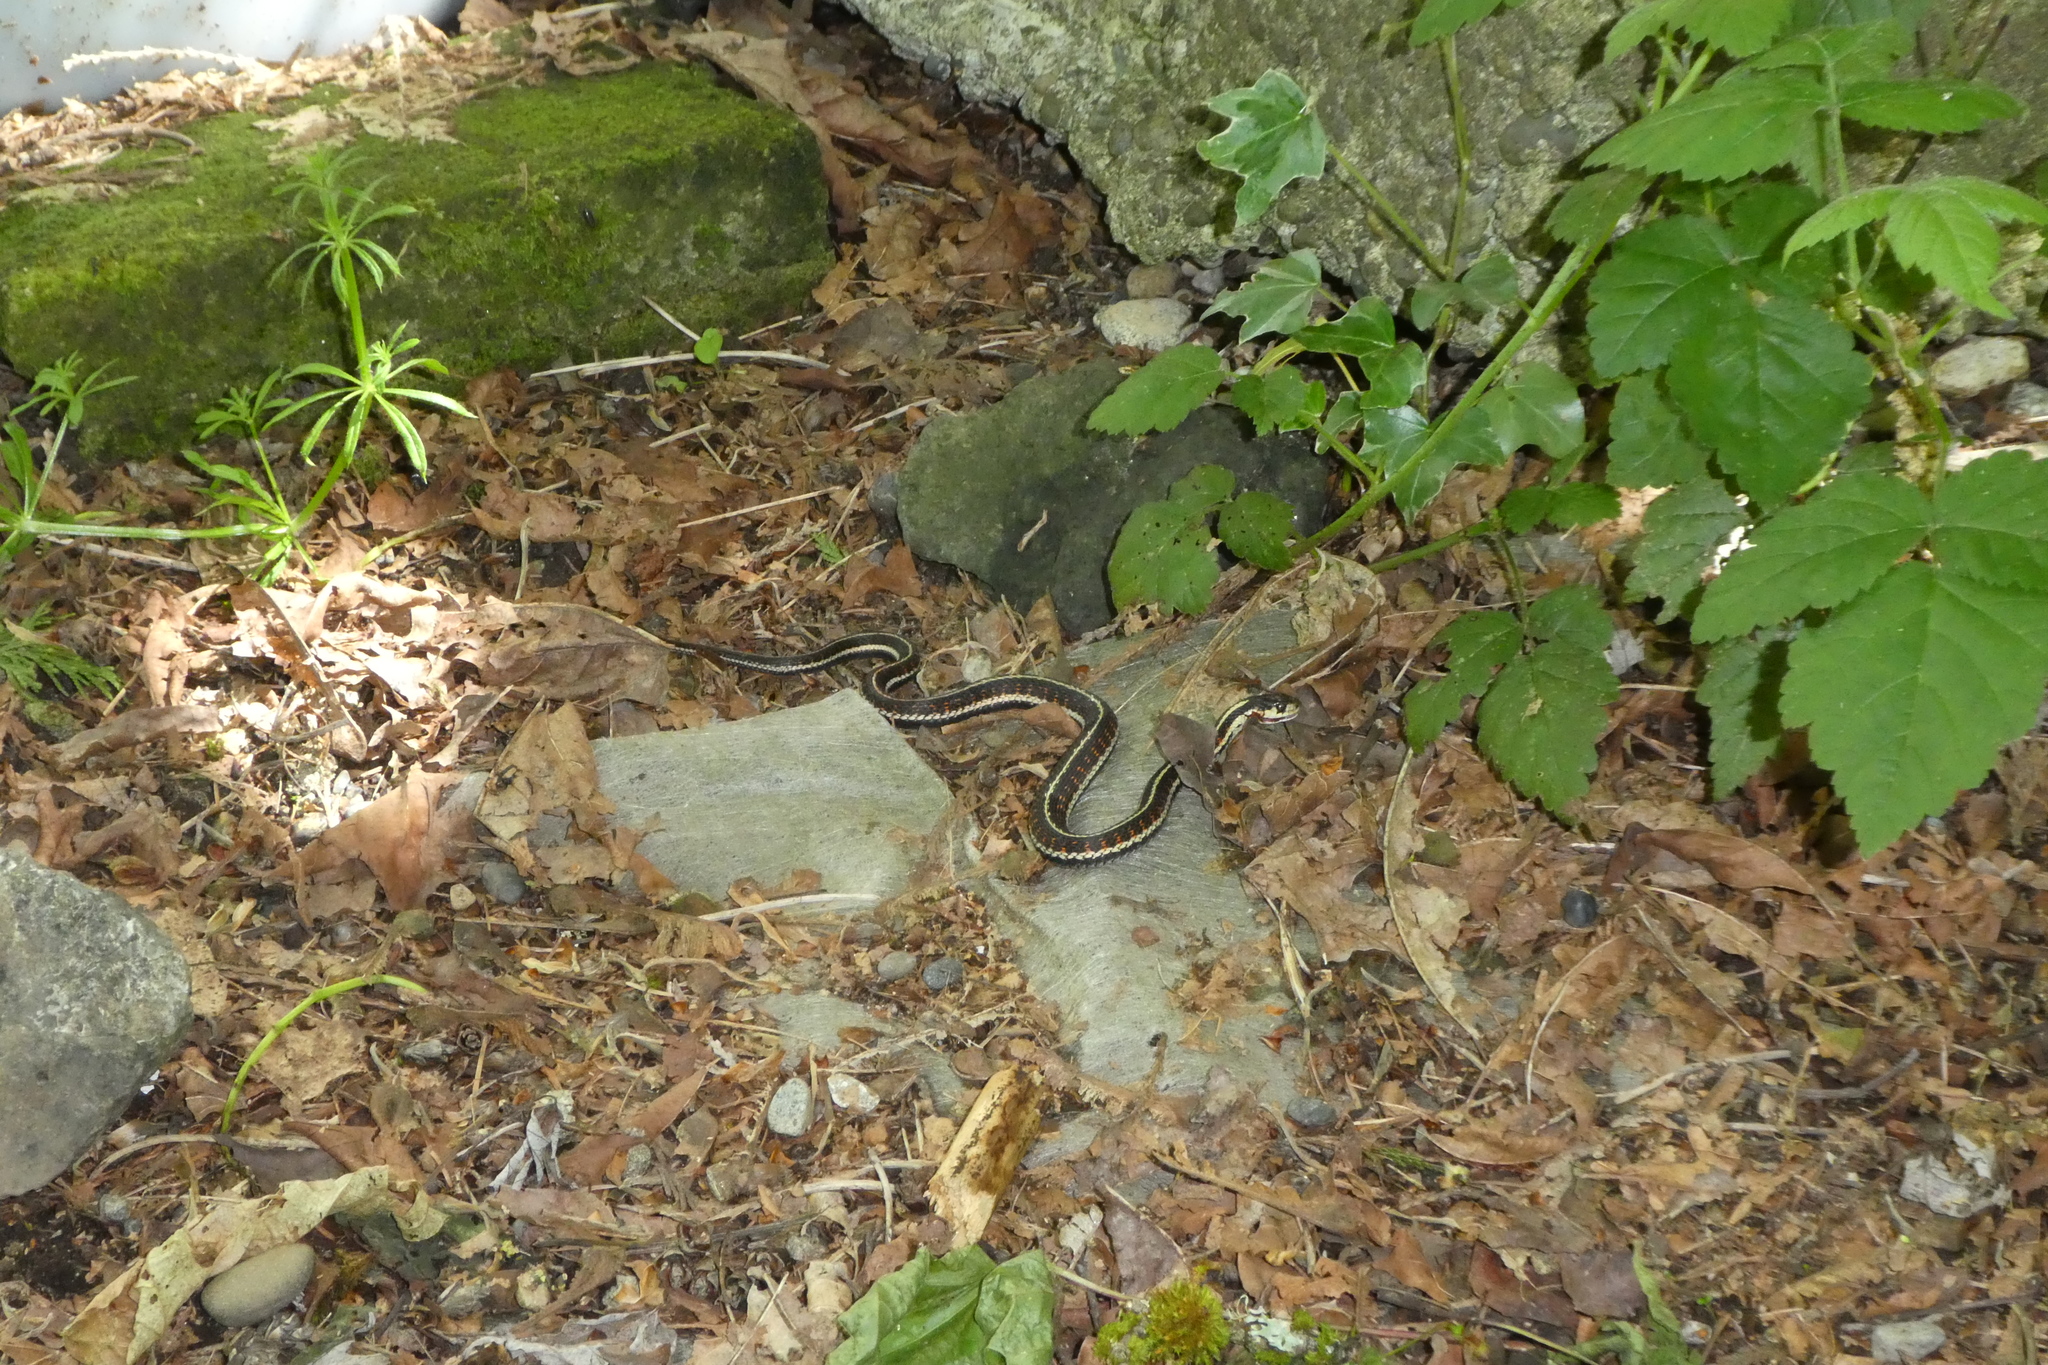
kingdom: Animalia
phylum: Chordata
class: Squamata
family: Colubridae
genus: Thamnophis
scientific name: Thamnophis sirtalis
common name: Common garter snake
